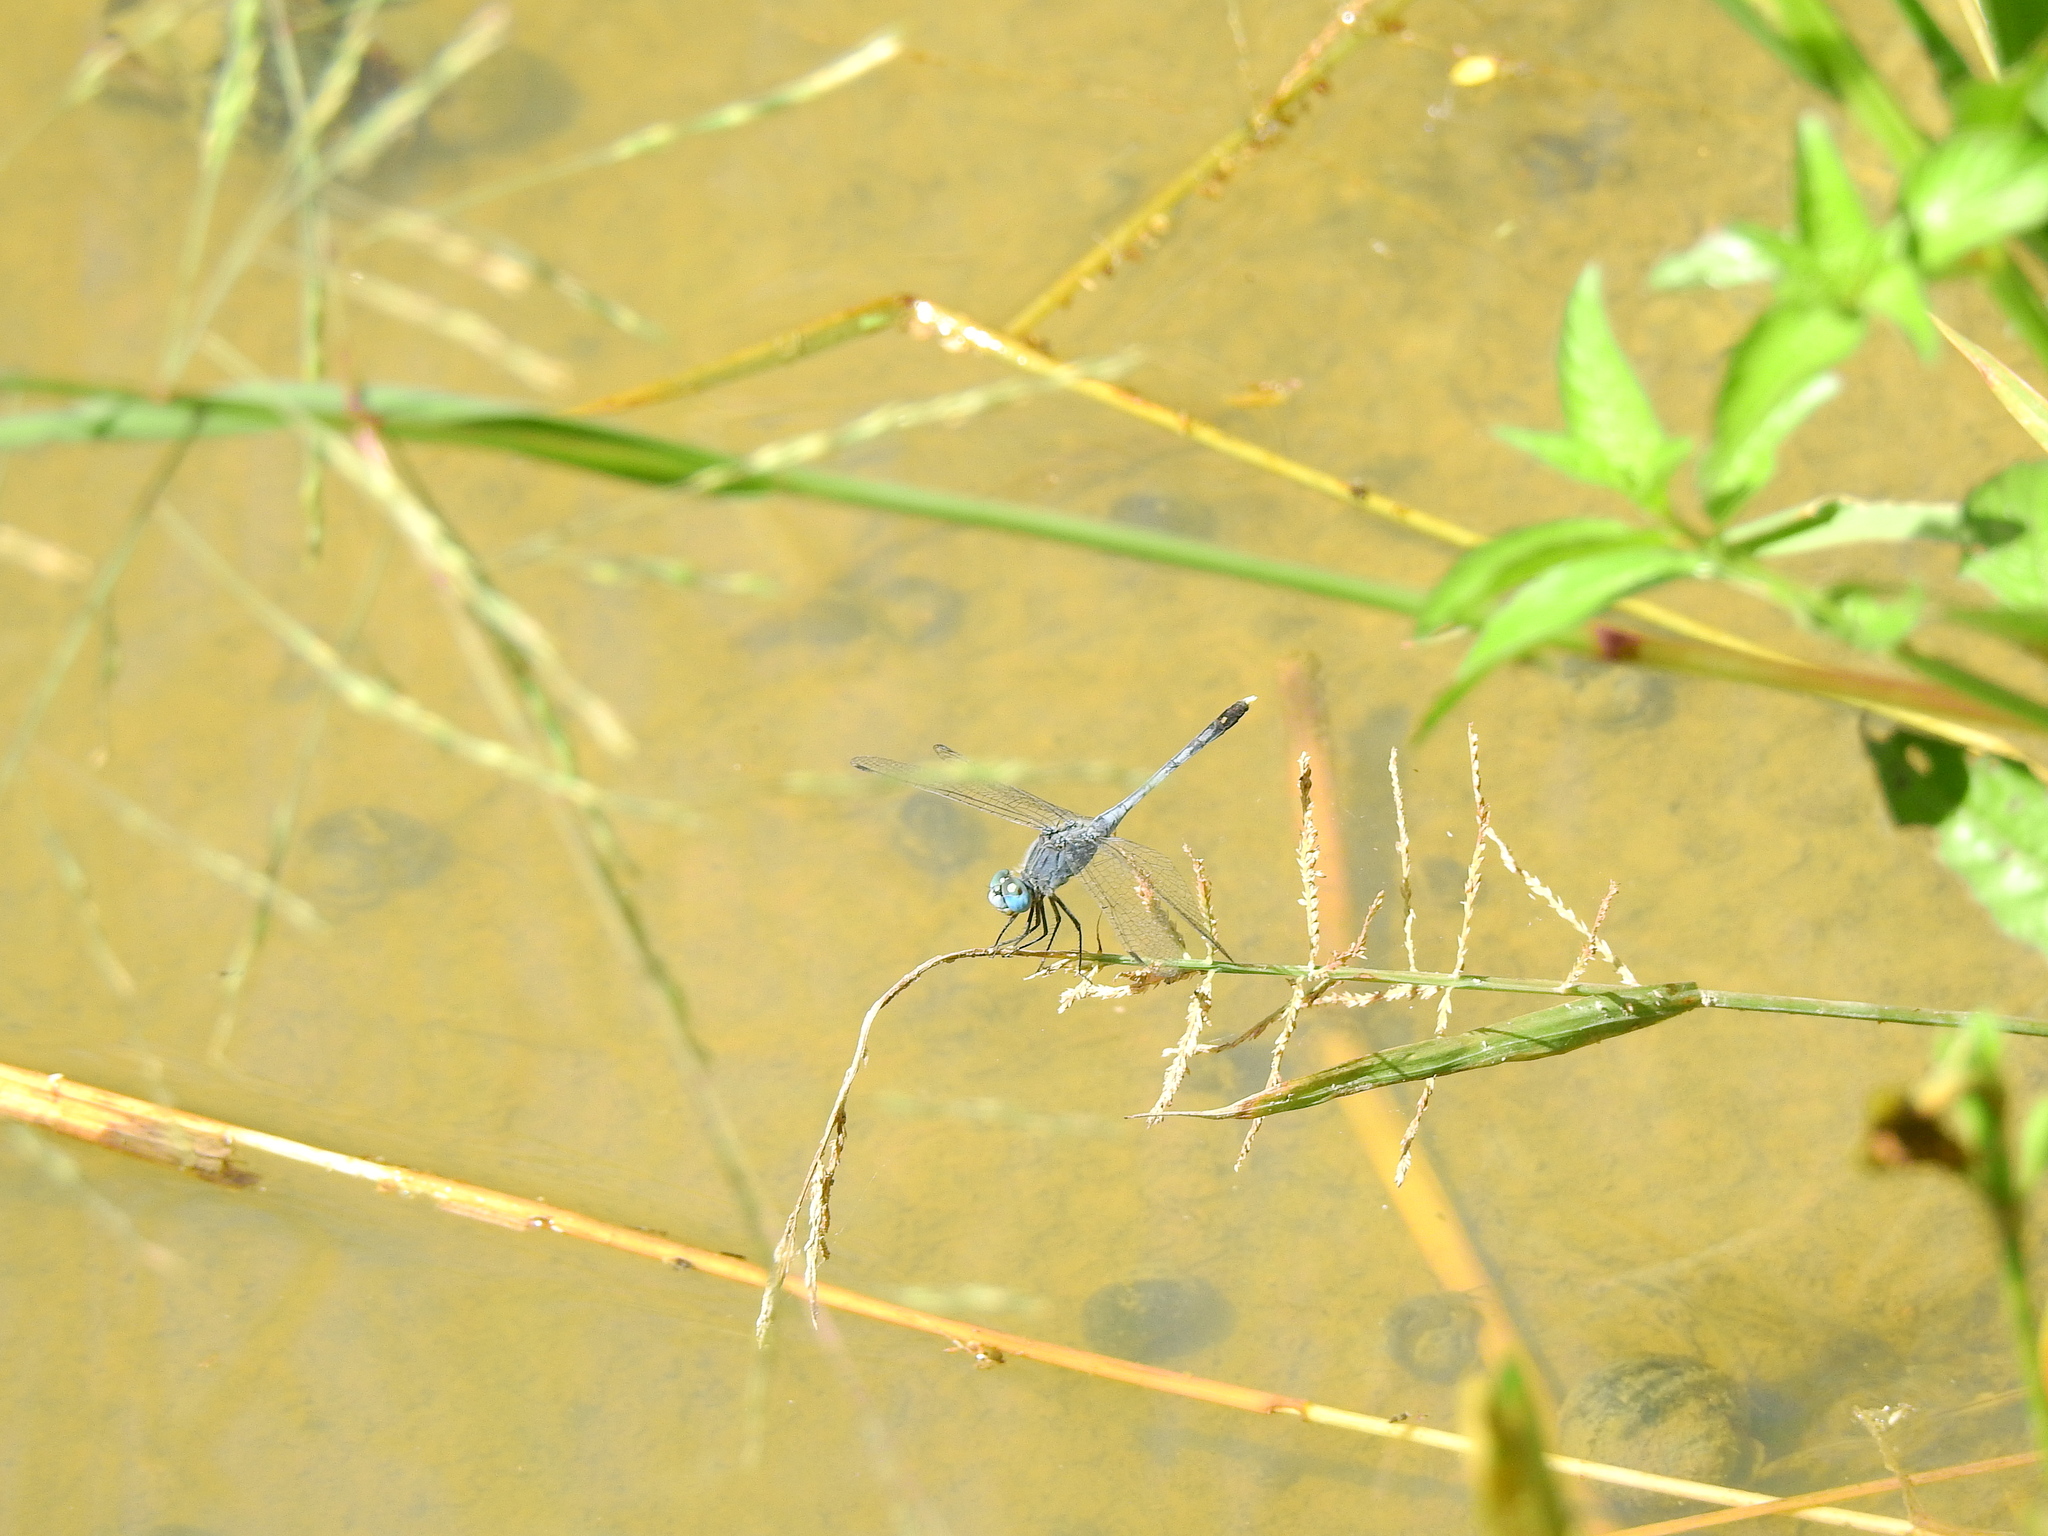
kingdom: Animalia
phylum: Arthropoda
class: Insecta
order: Odonata
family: Libellulidae
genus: Diplacodes
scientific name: Diplacodes trivialis
